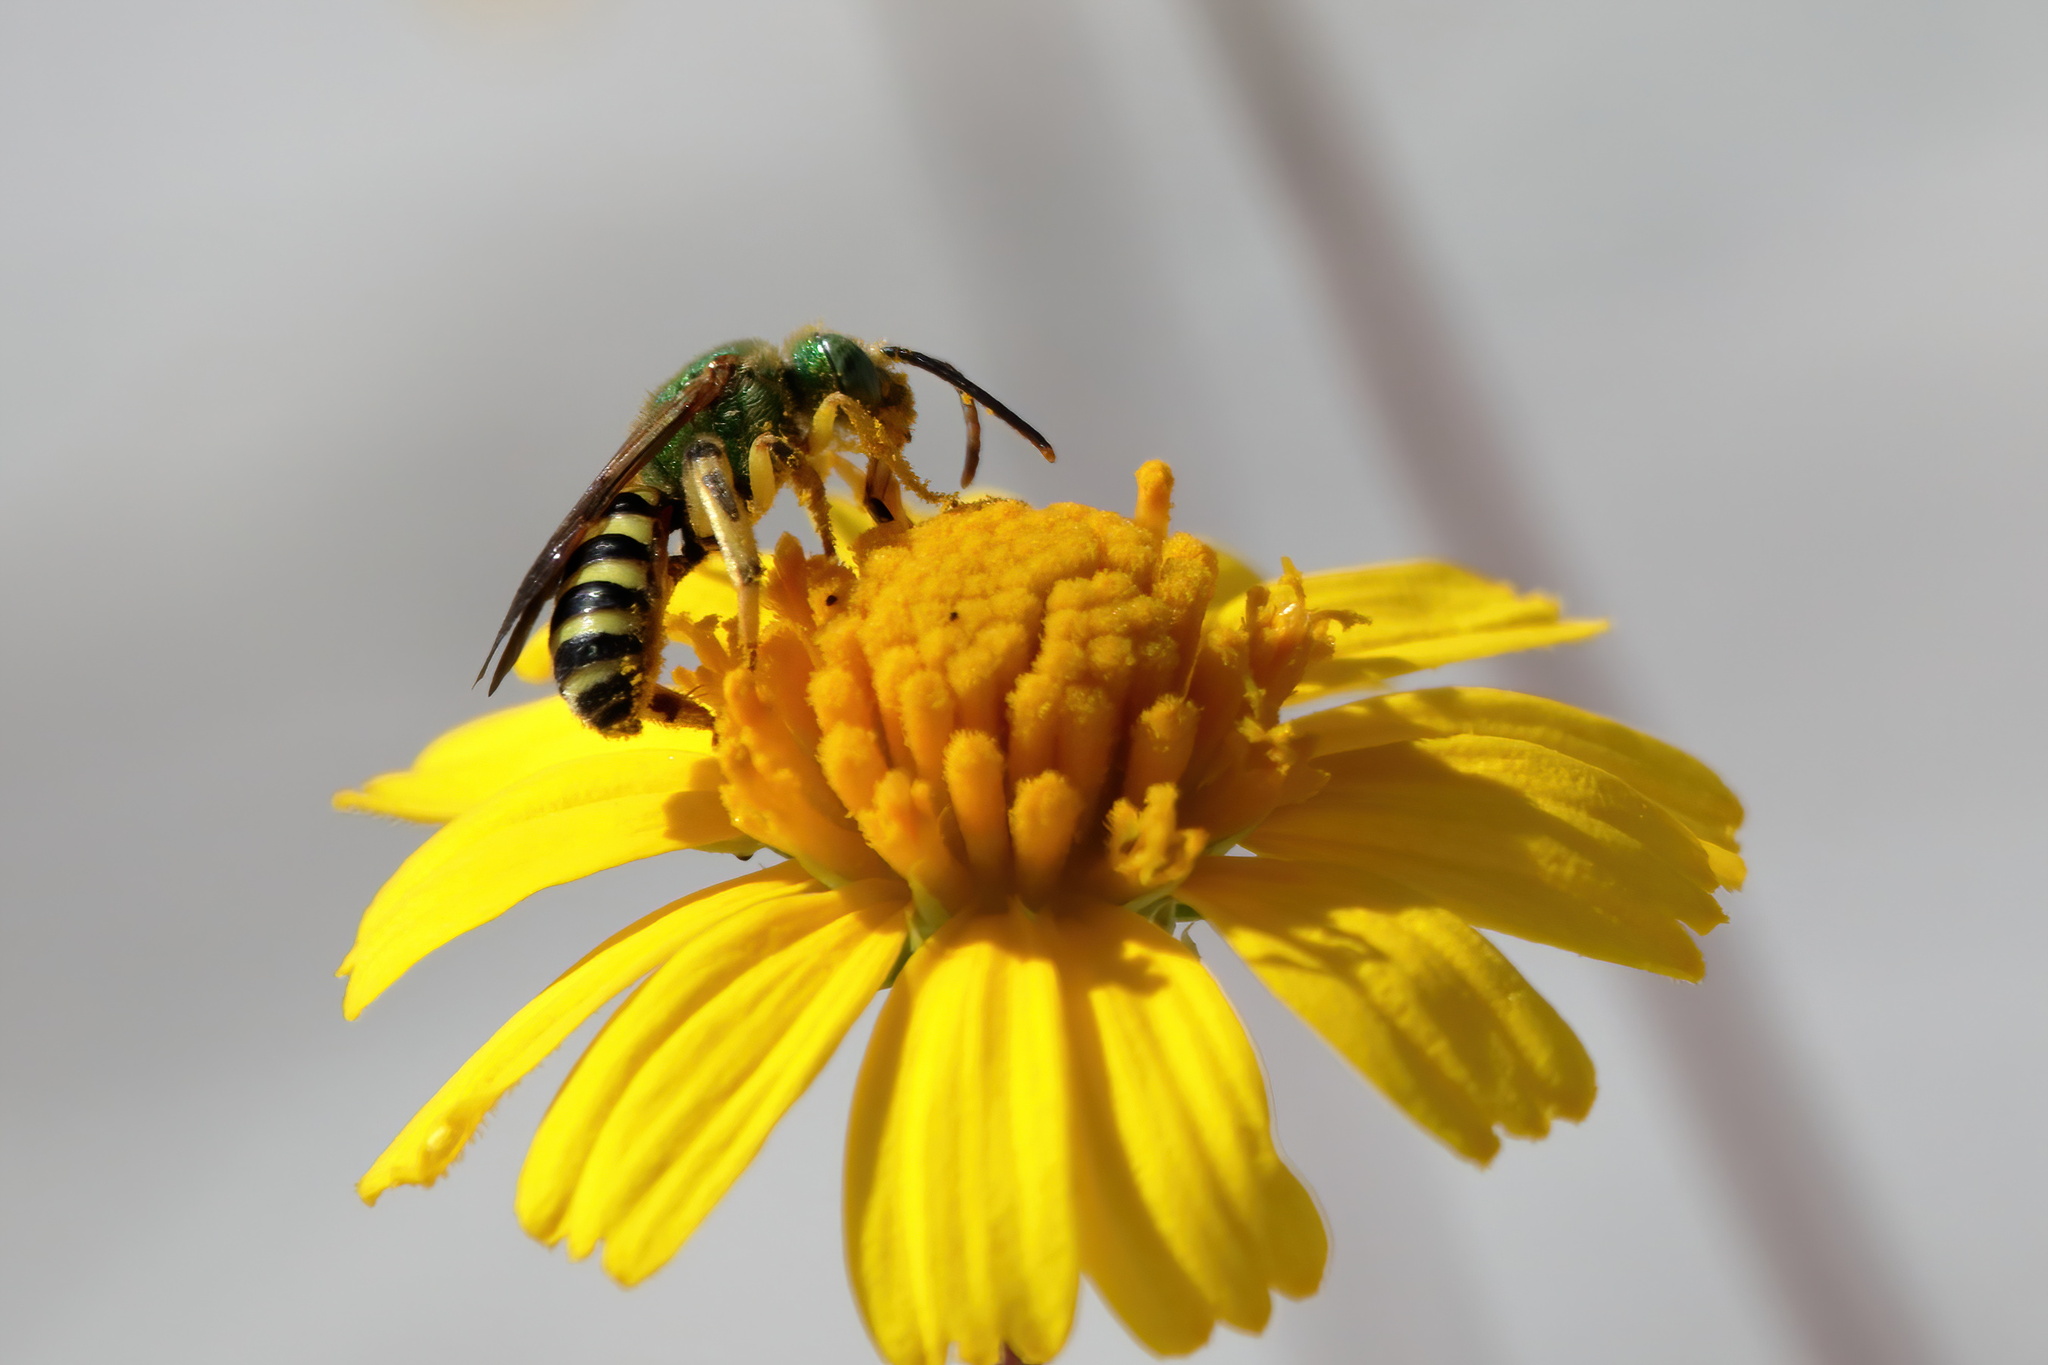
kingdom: Animalia
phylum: Arthropoda
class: Insecta
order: Hymenoptera
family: Halictidae
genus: Agapostemon
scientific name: Agapostemon splendens
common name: Brown-winged striped sweat bee
